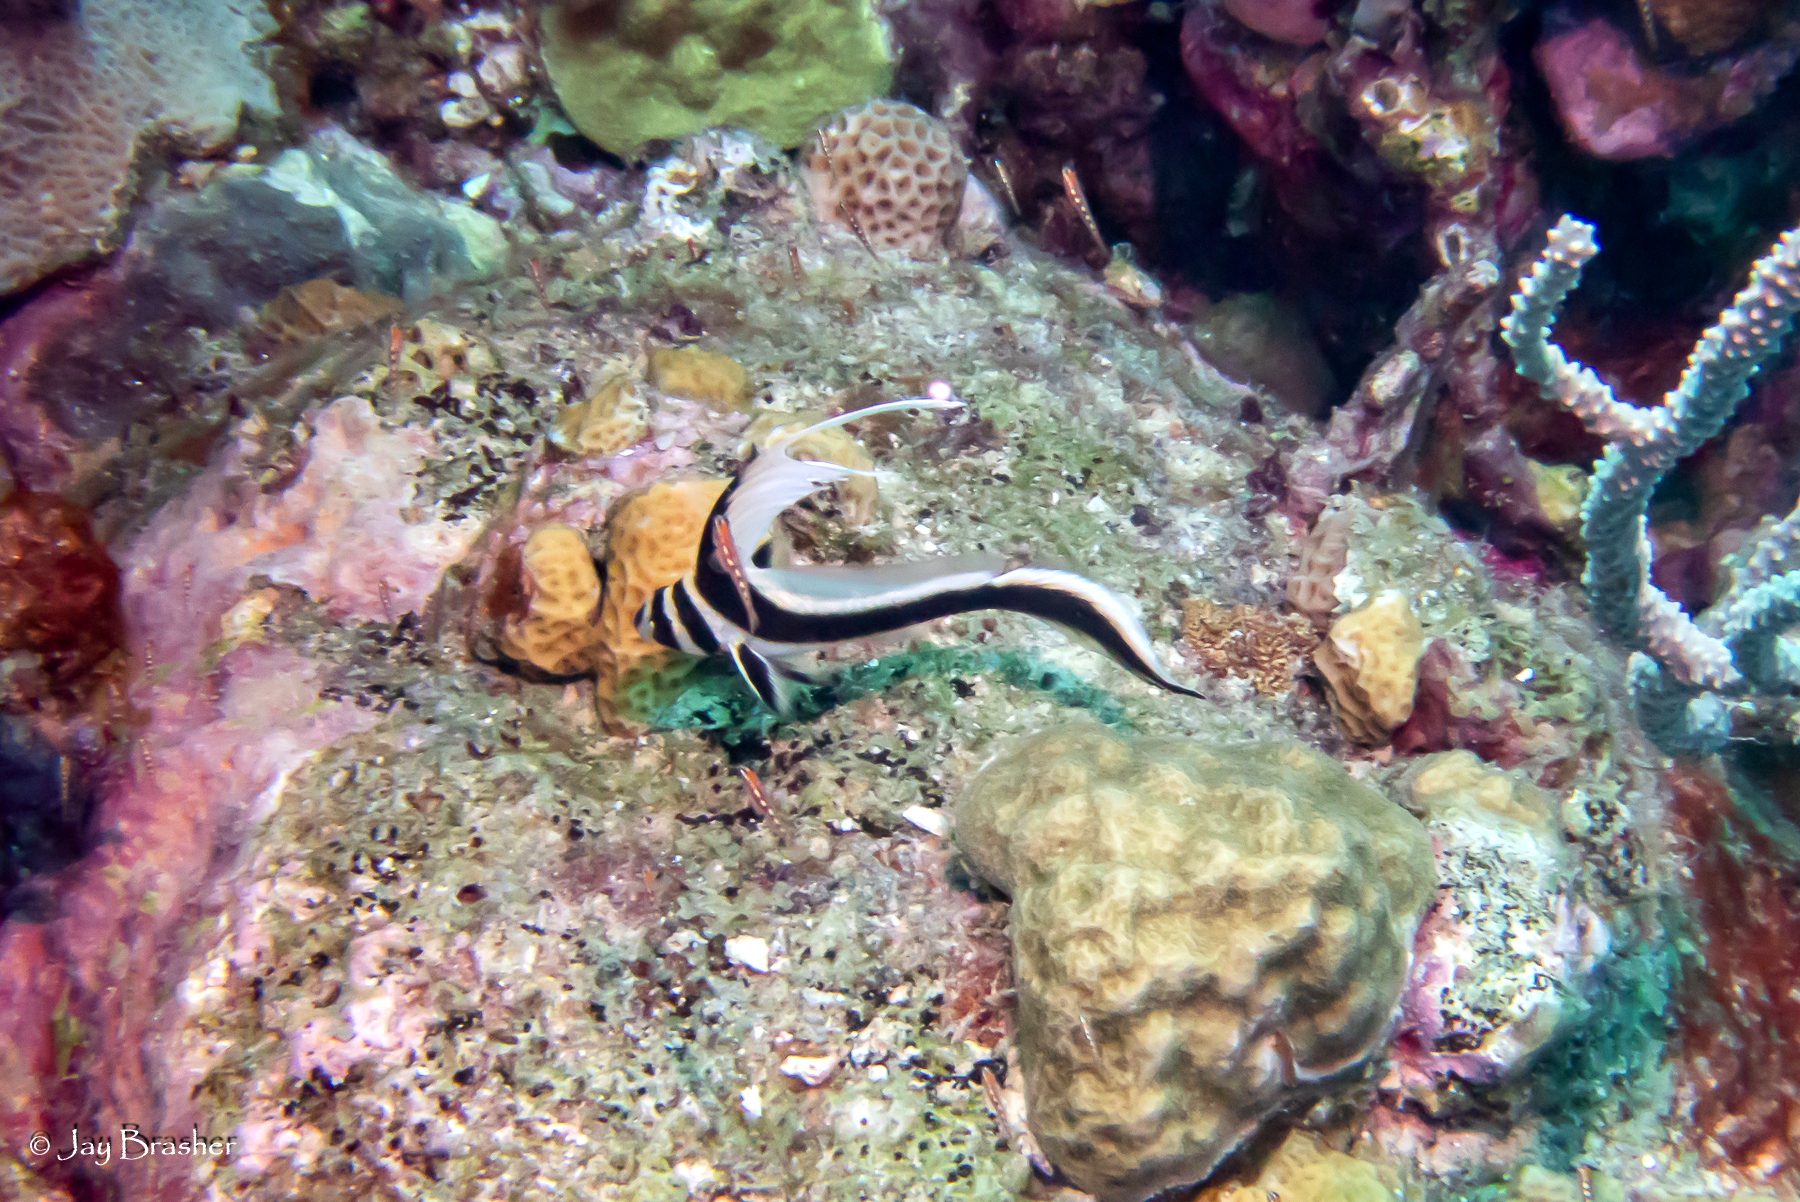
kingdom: Animalia
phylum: Cnidaria
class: Anthozoa
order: Scleractinia
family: Poritidae
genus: Porites
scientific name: Porites astreoides
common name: Mustard hill coral
